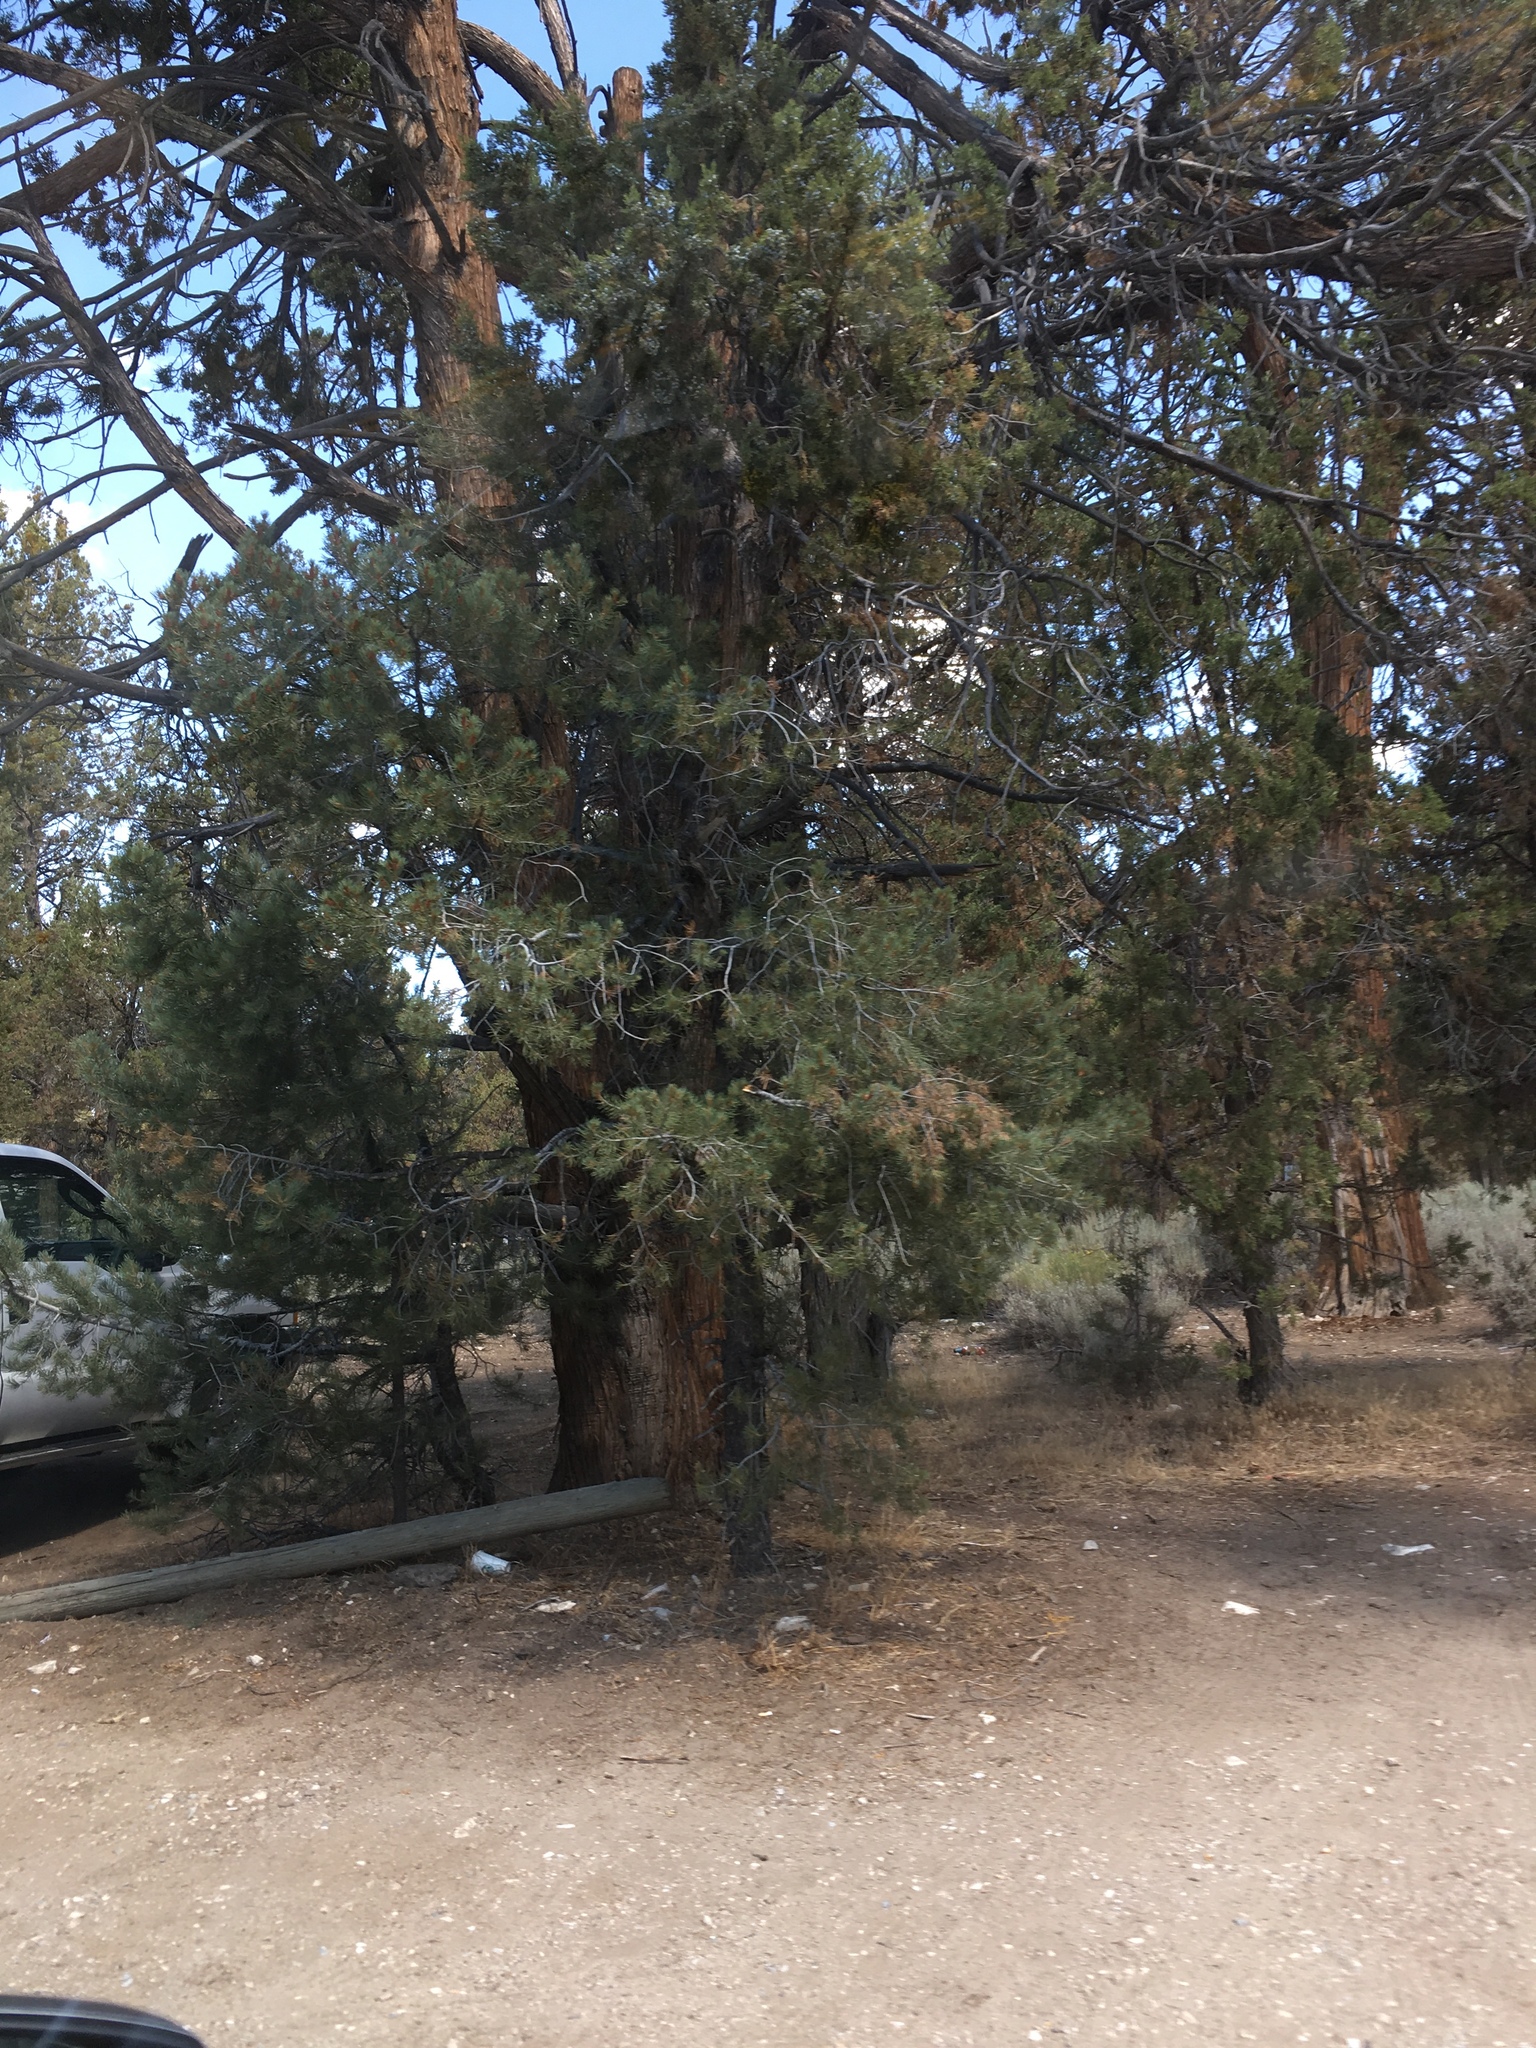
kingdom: Plantae
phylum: Tracheophyta
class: Pinopsida
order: Pinales
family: Pinaceae
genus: Pinus
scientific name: Pinus monophylla
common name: One-leaved nut pine
